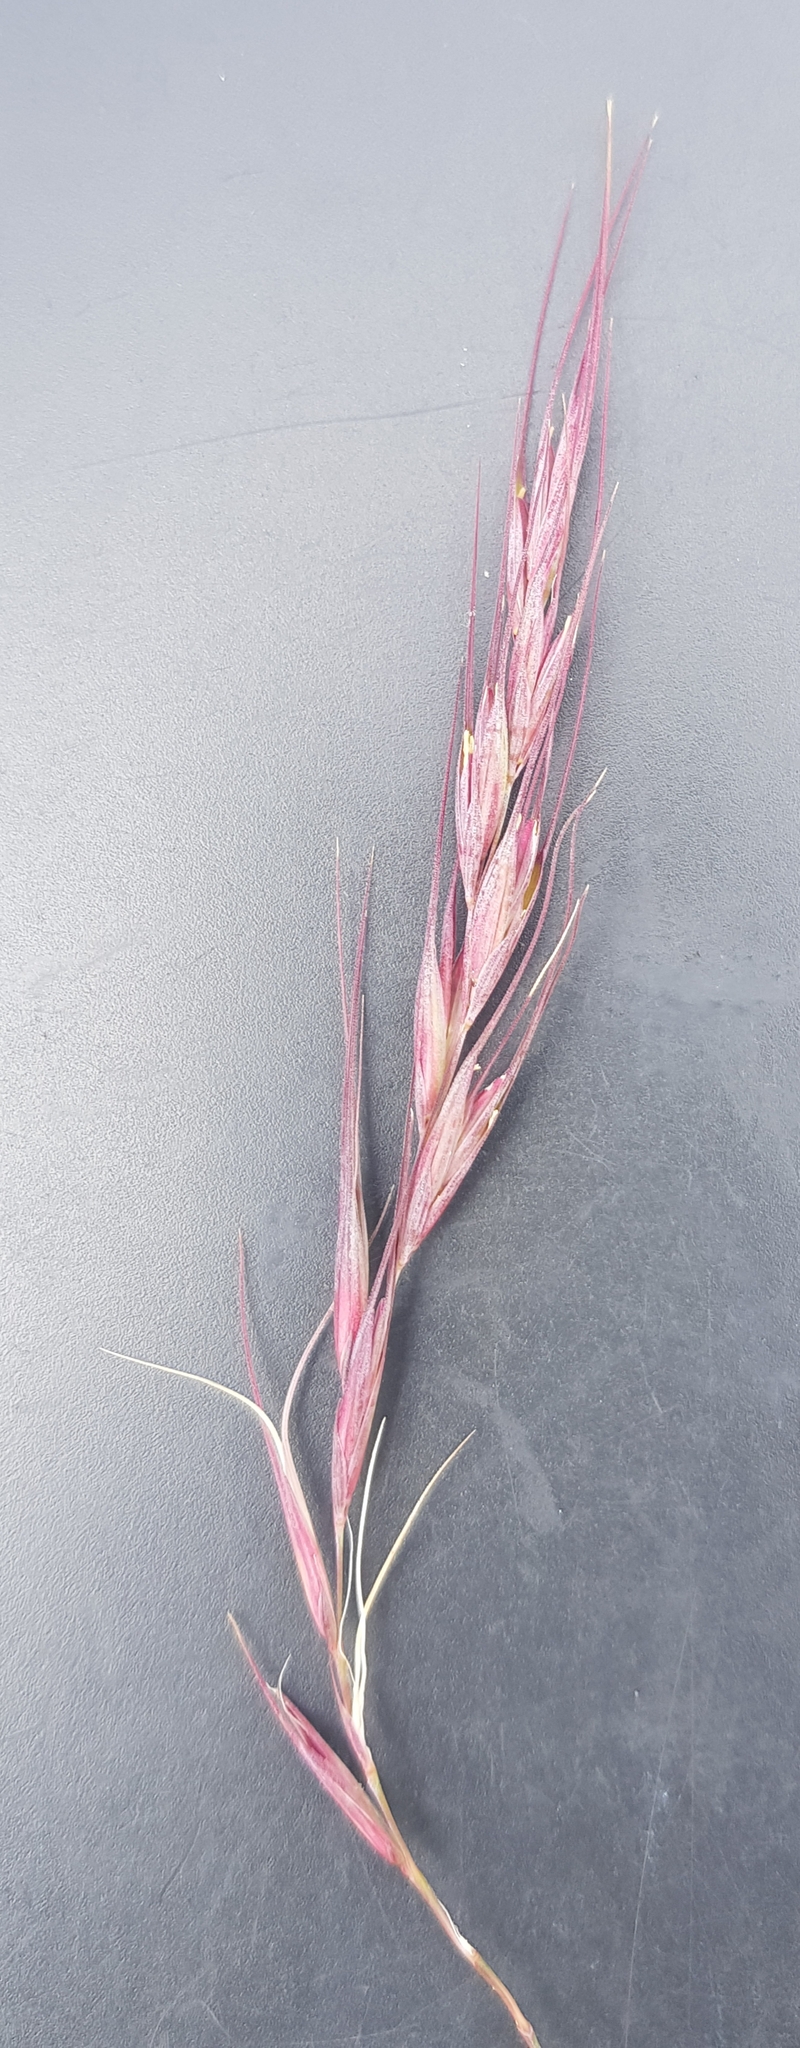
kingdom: Plantae
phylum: Tracheophyta
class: Liliopsida
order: Poales
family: Poaceae
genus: Elymus
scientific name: Elymus sibiricus
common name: Siberian wildrye
